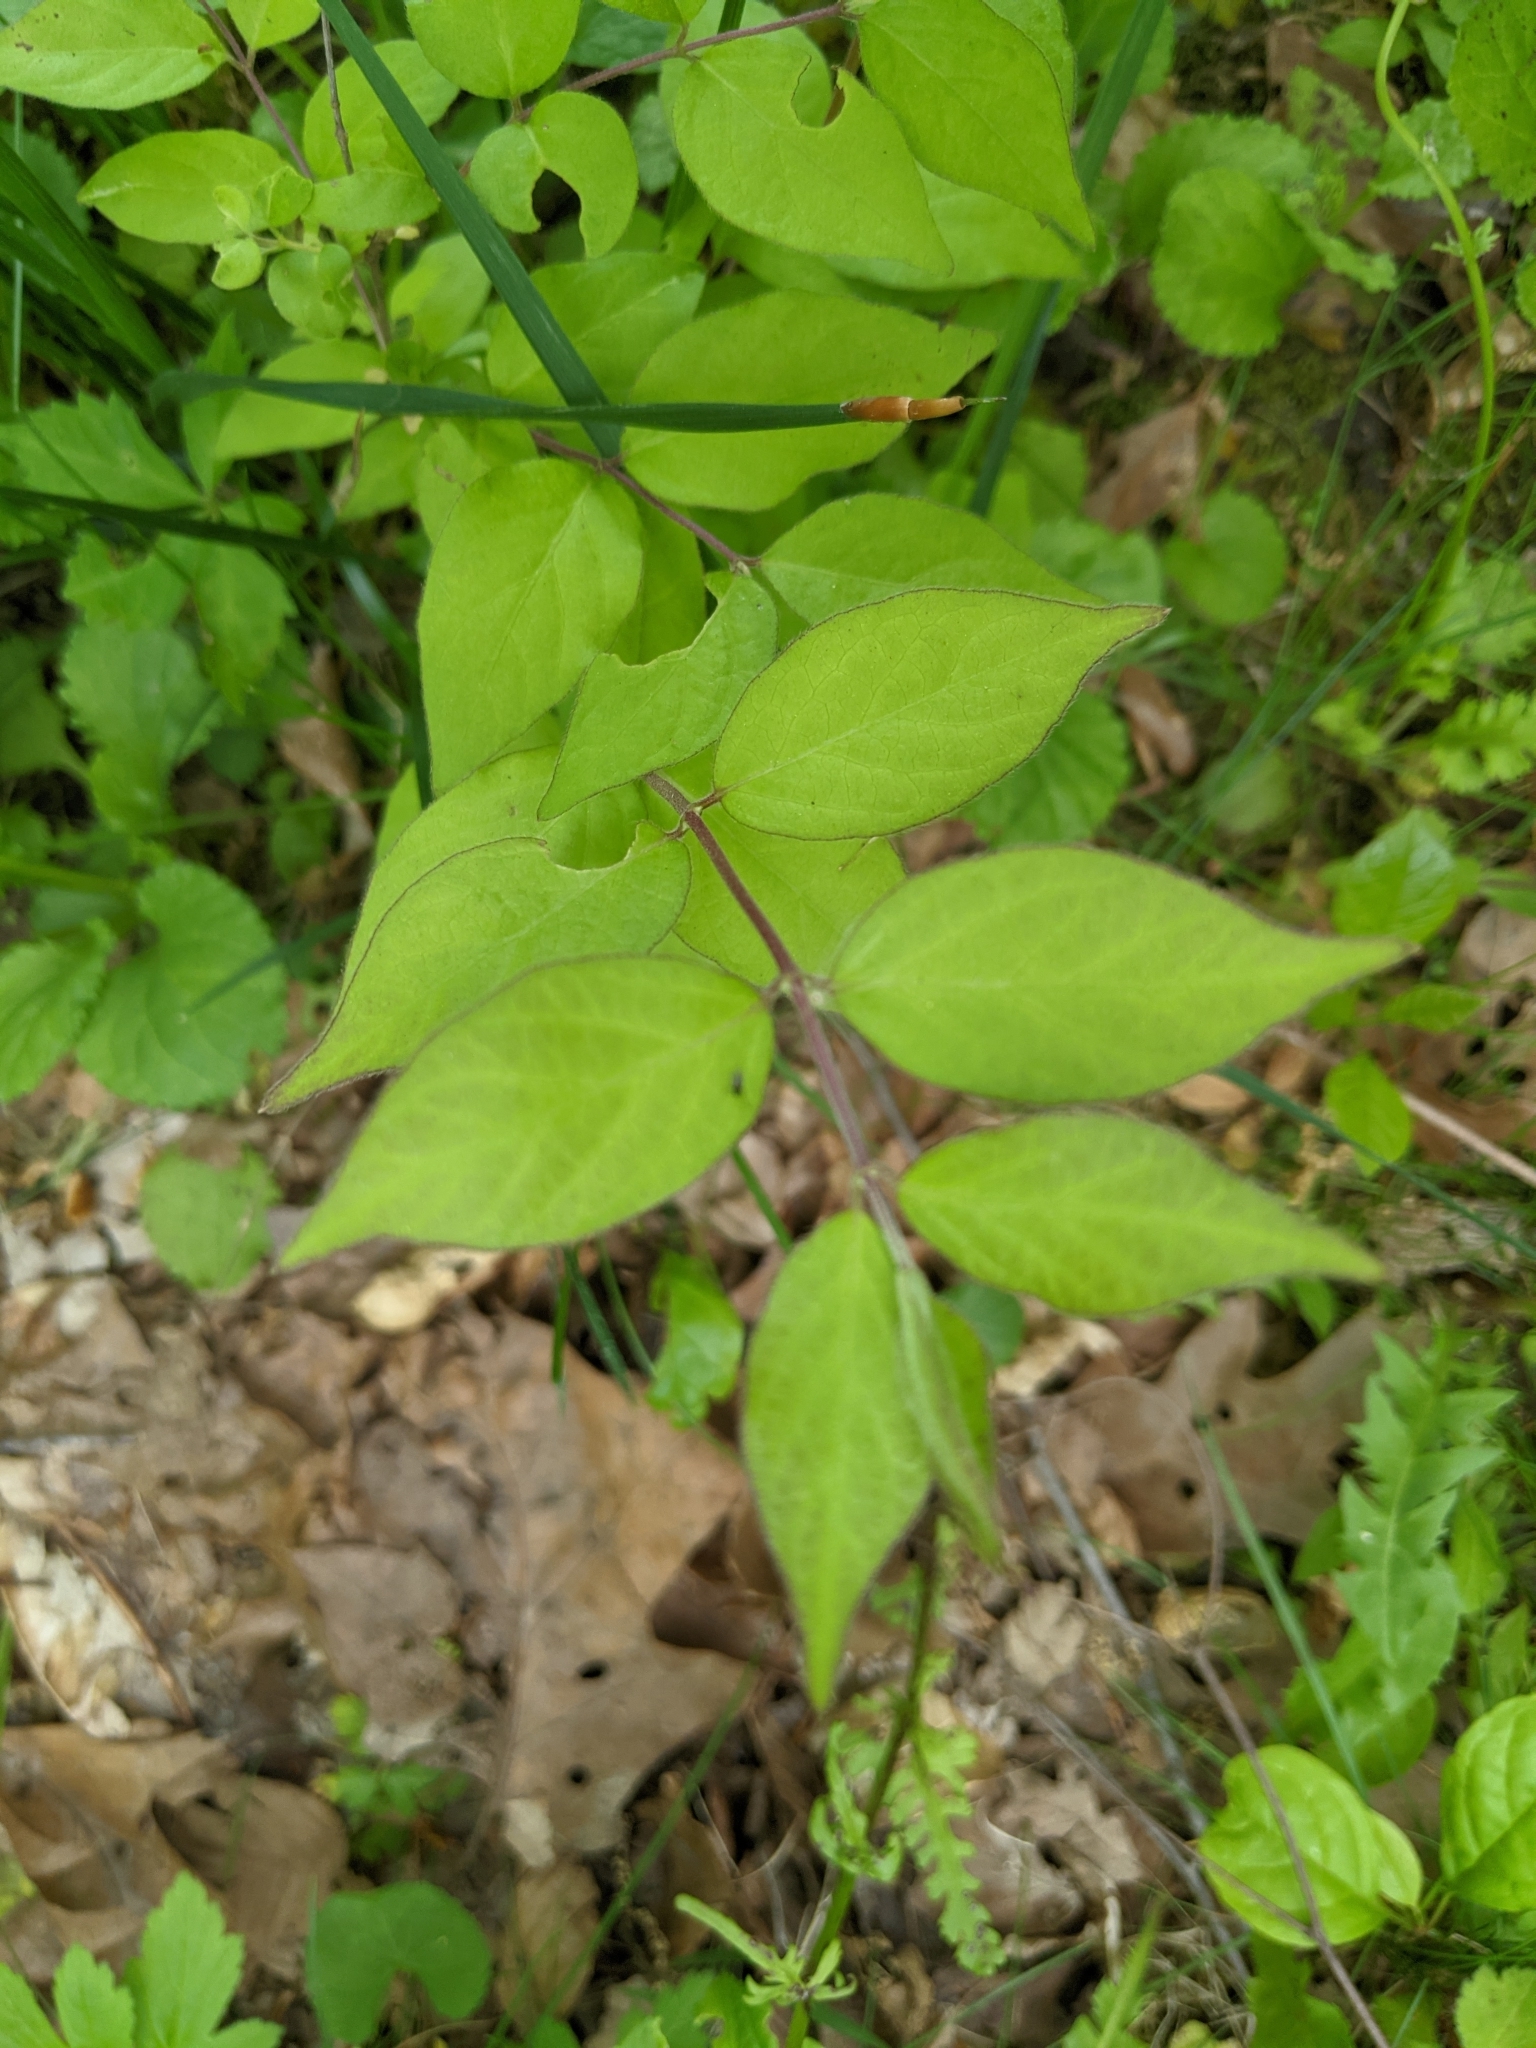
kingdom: Plantae
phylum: Tracheophyta
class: Magnoliopsida
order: Dipsacales
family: Caprifoliaceae
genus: Lonicera
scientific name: Lonicera maackii
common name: Amur honeysuckle
